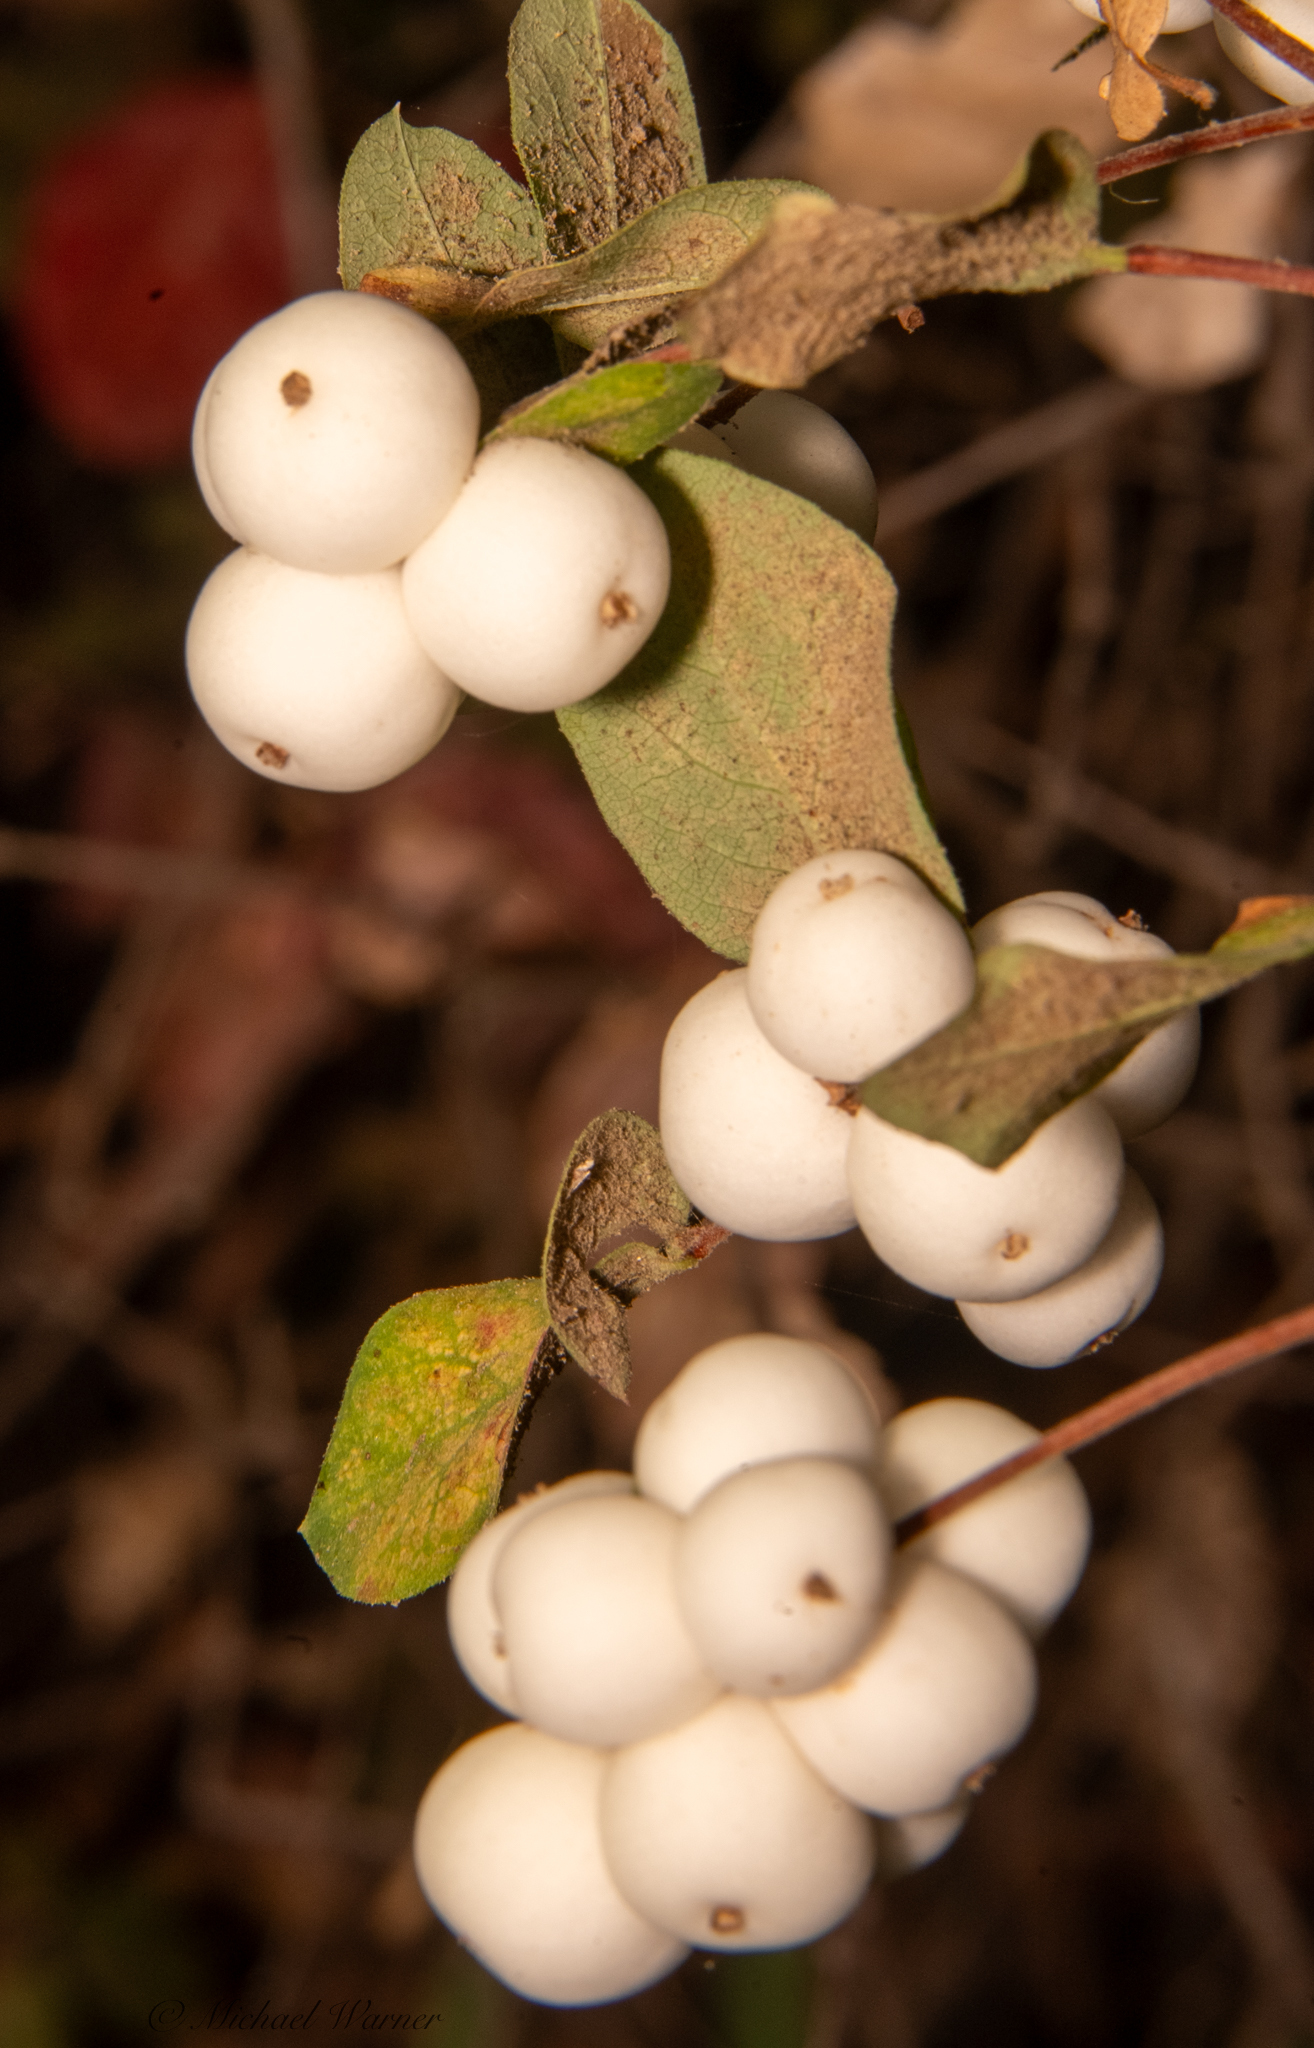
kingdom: Plantae
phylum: Tracheophyta
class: Magnoliopsida
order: Dipsacales
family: Caprifoliaceae
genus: Symphoricarpos
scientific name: Symphoricarpos albus
